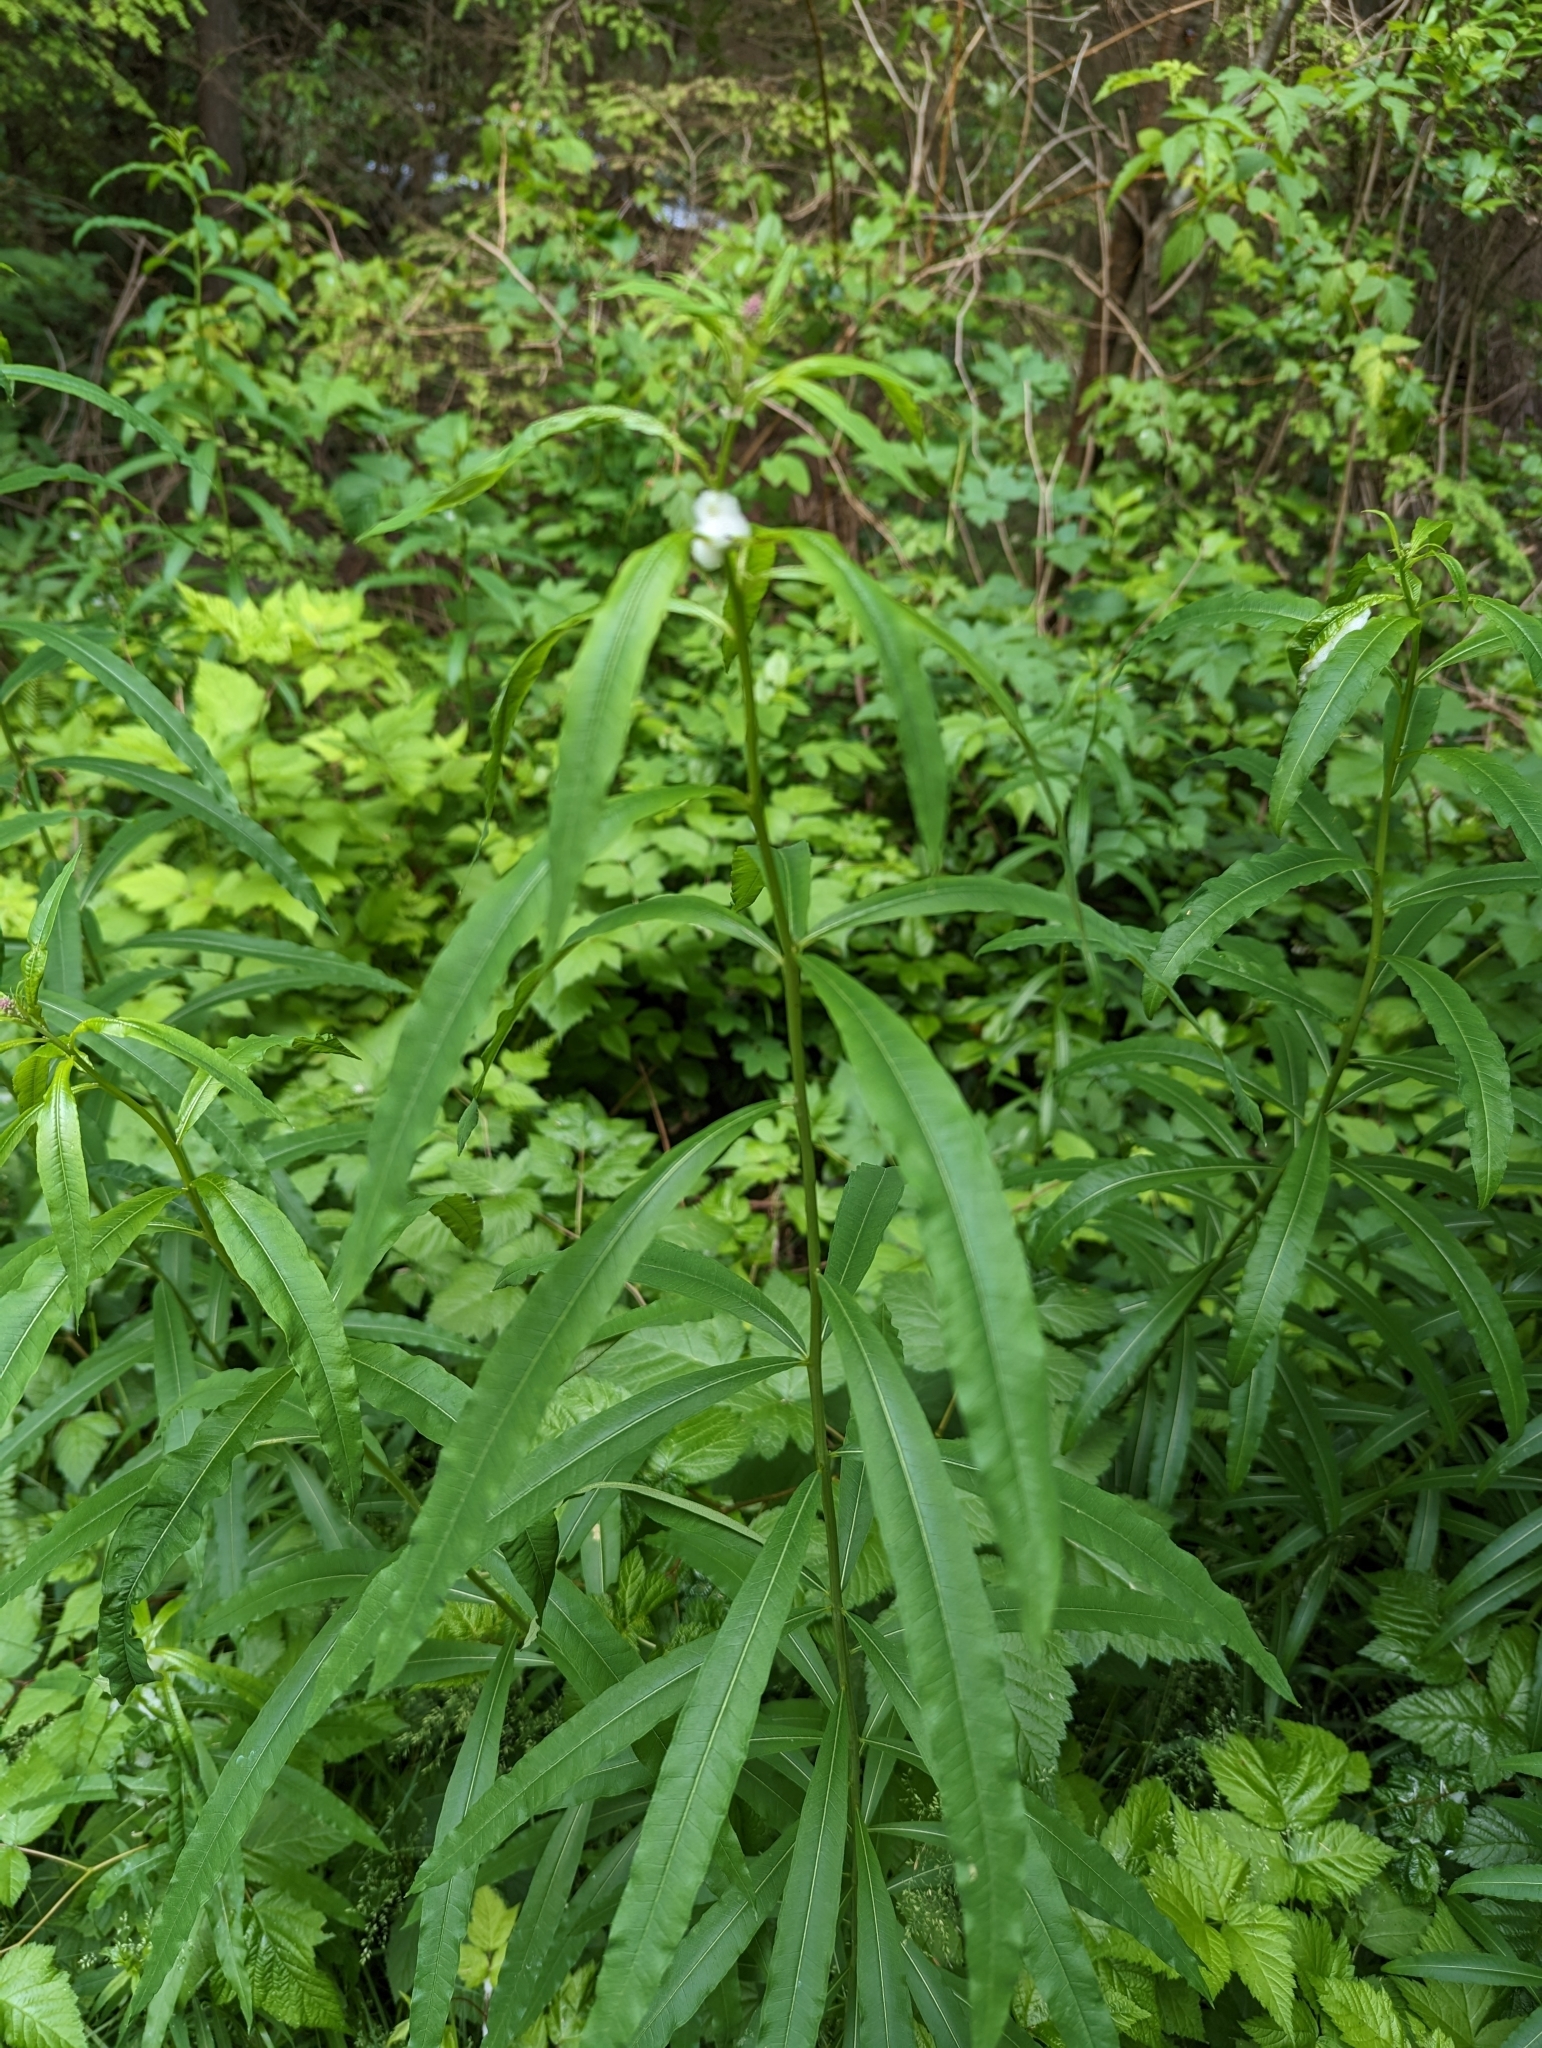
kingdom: Plantae
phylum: Tracheophyta
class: Magnoliopsida
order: Myrtales
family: Onagraceae
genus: Chamaenerion
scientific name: Chamaenerion angustifolium
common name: Fireweed
